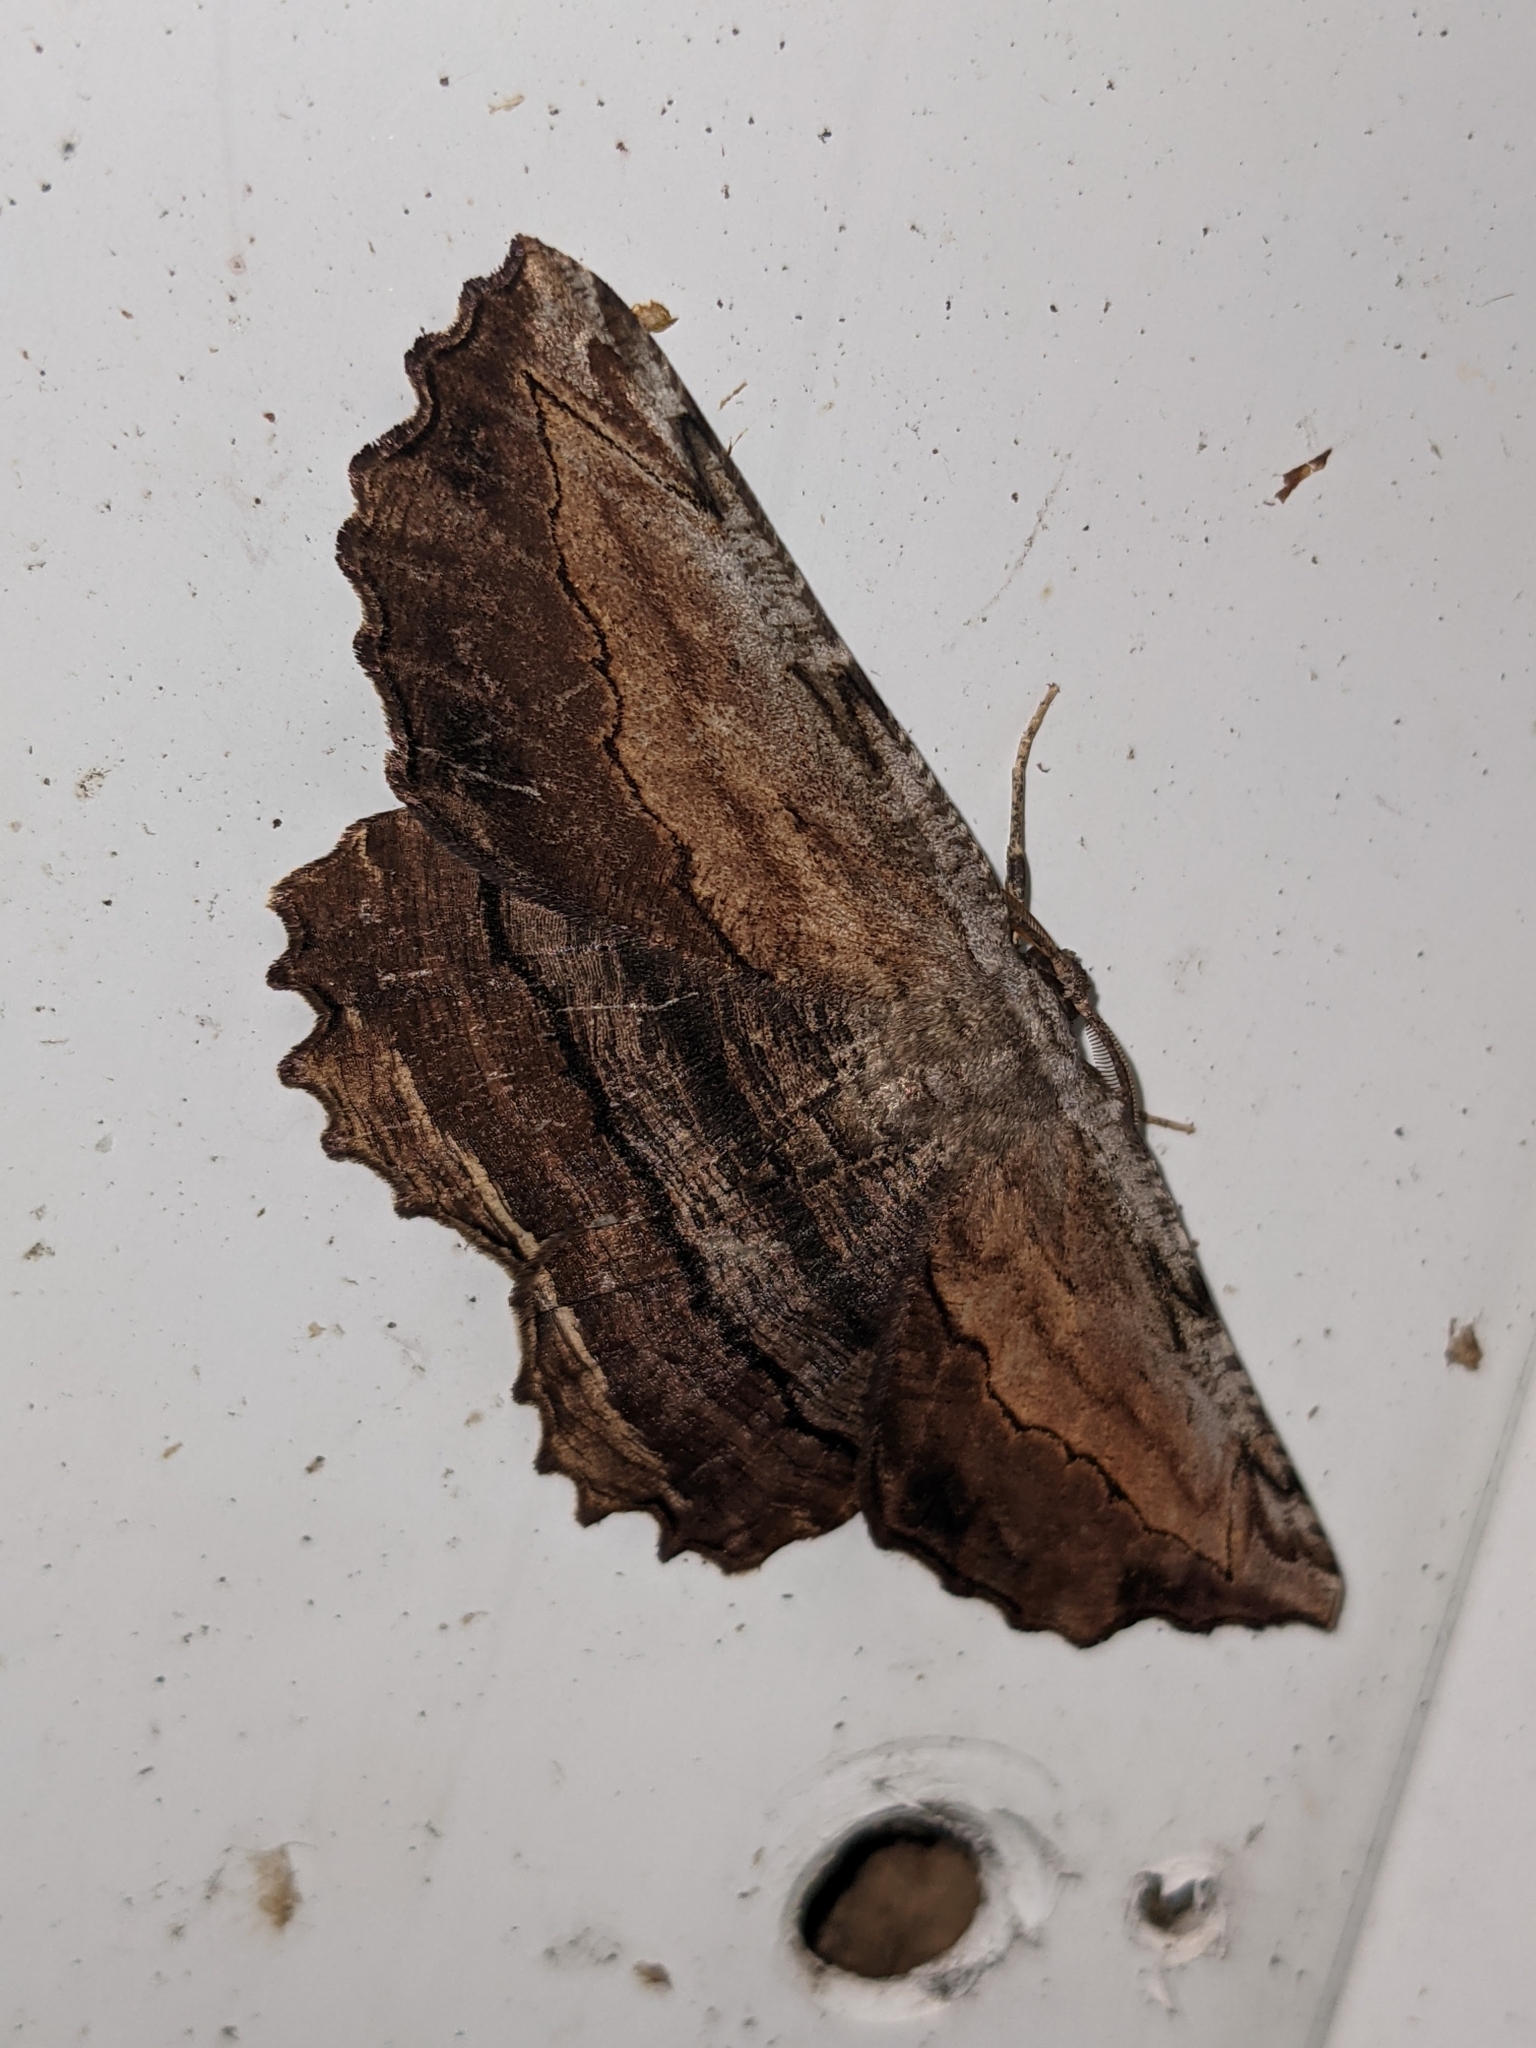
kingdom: Animalia
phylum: Arthropoda
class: Insecta
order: Lepidoptera
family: Geometridae
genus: Lytrosis
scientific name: Lytrosis unitaria
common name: Common lytrosis
